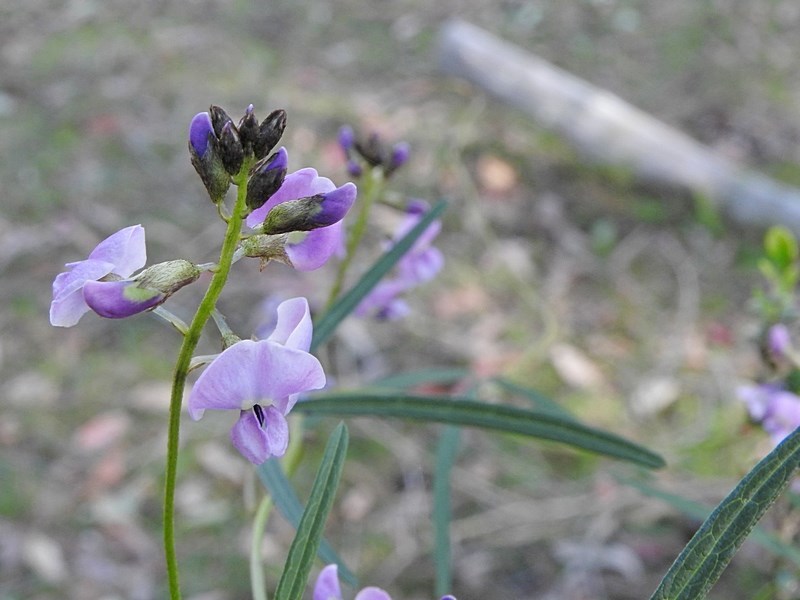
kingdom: Plantae
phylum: Tracheophyta
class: Magnoliopsida
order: Fabales
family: Fabaceae
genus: Glycine
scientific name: Glycine clandestina
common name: Twining glycine
